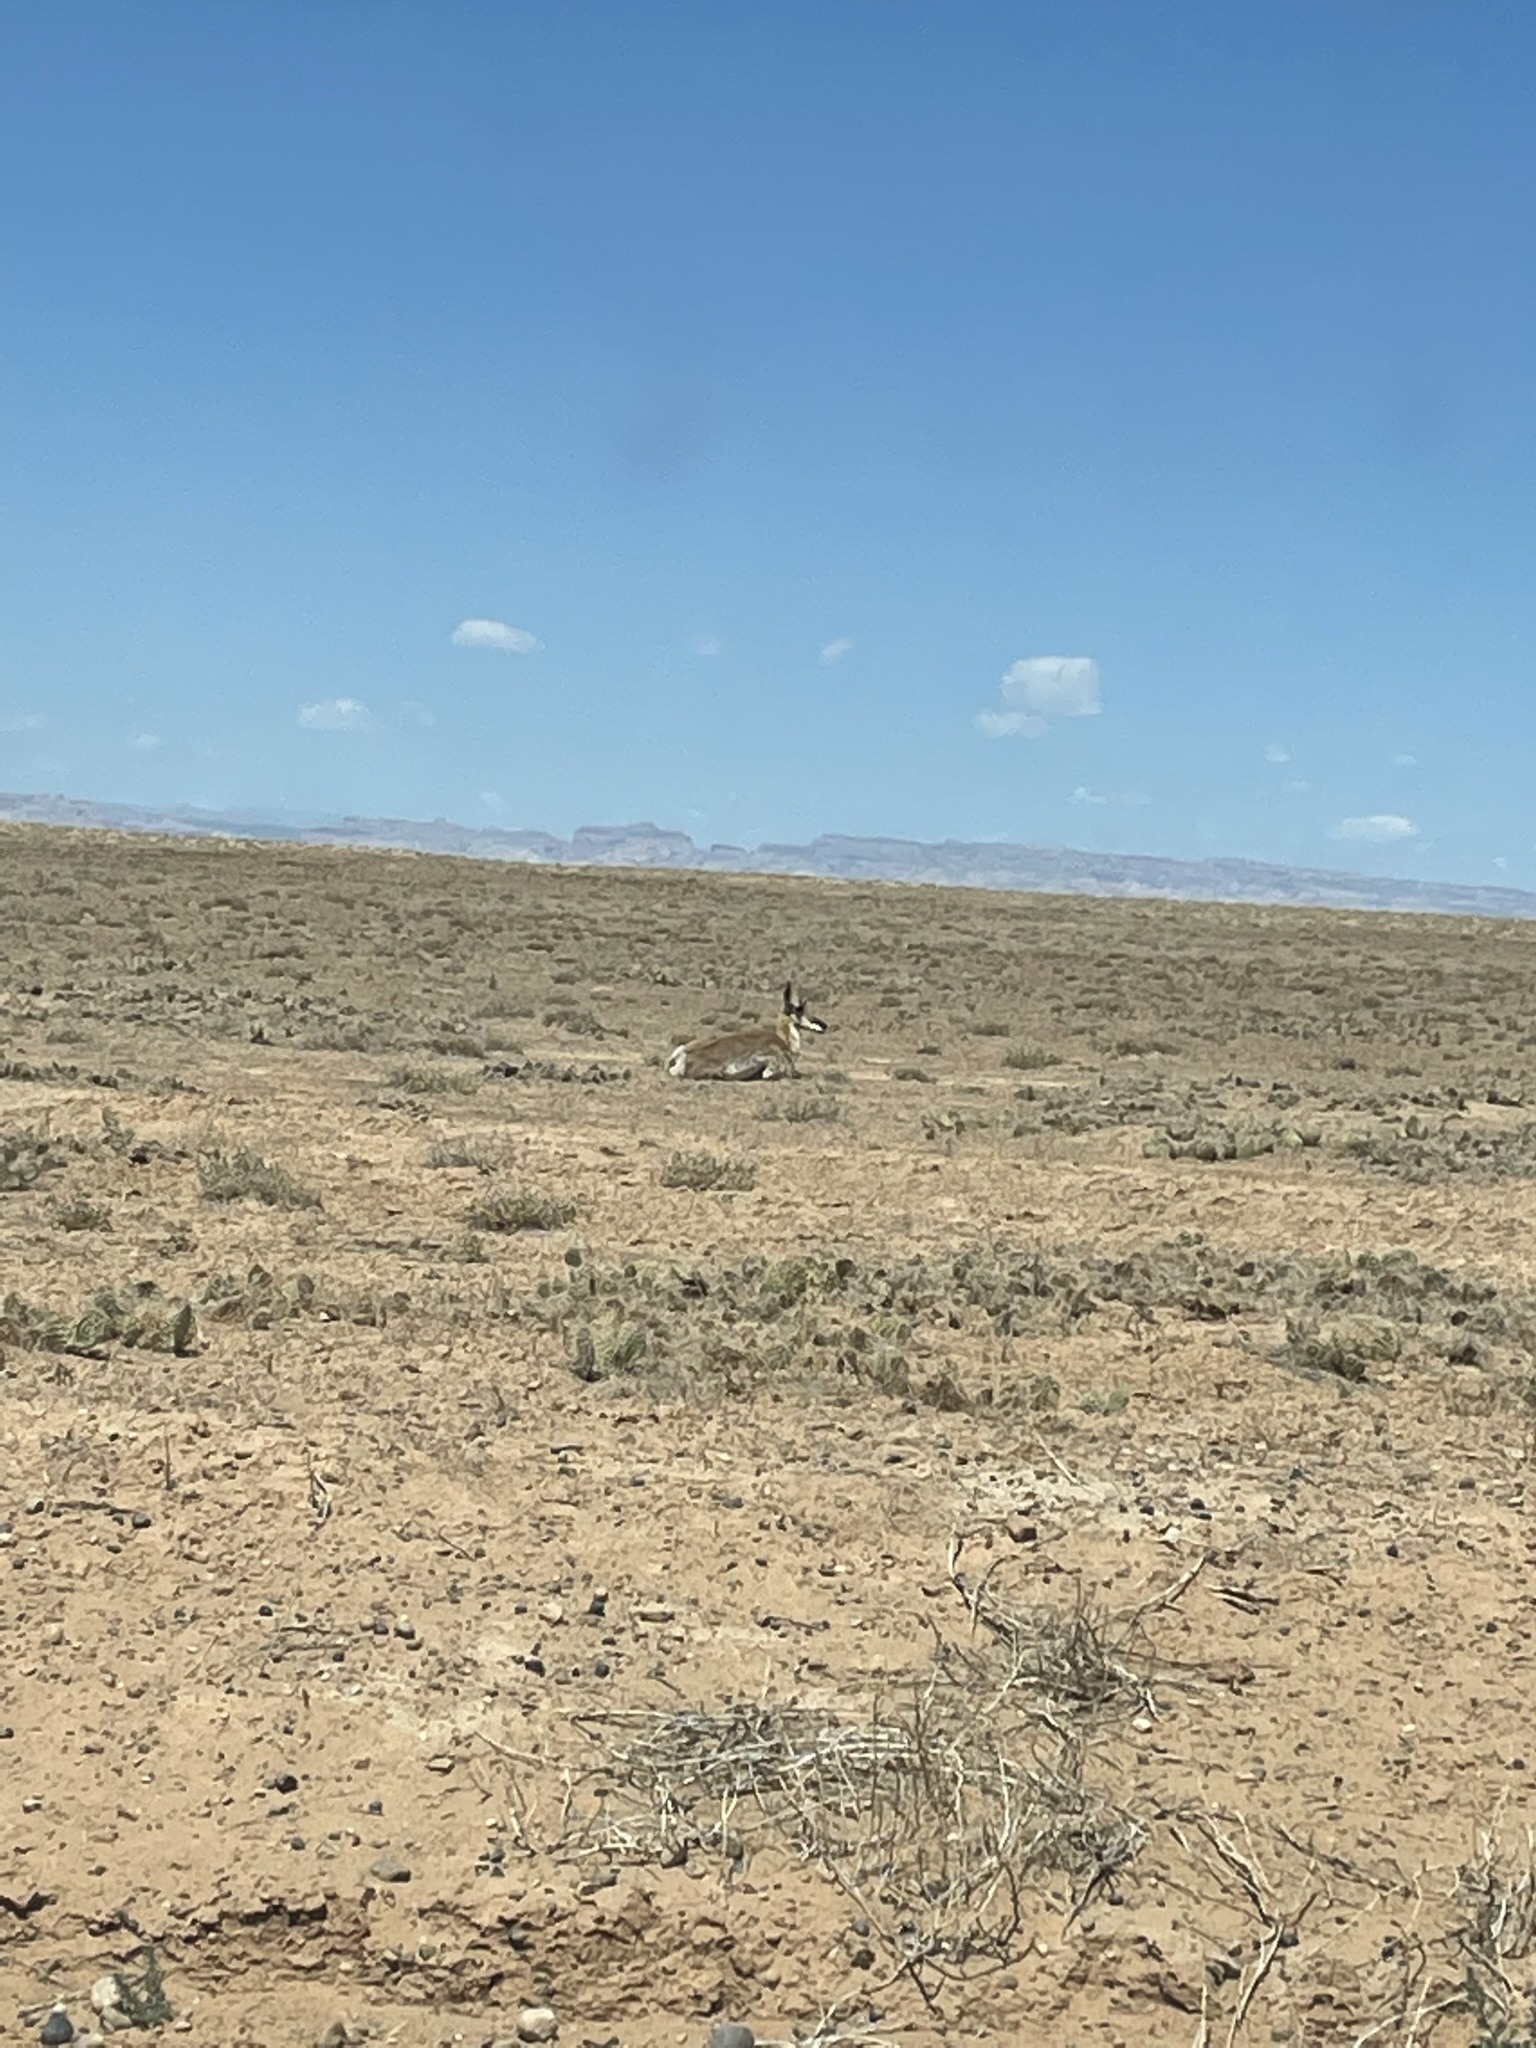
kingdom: Animalia
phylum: Chordata
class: Mammalia
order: Artiodactyla
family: Antilocapridae
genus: Antilocapra
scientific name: Antilocapra americana
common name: Pronghorn
